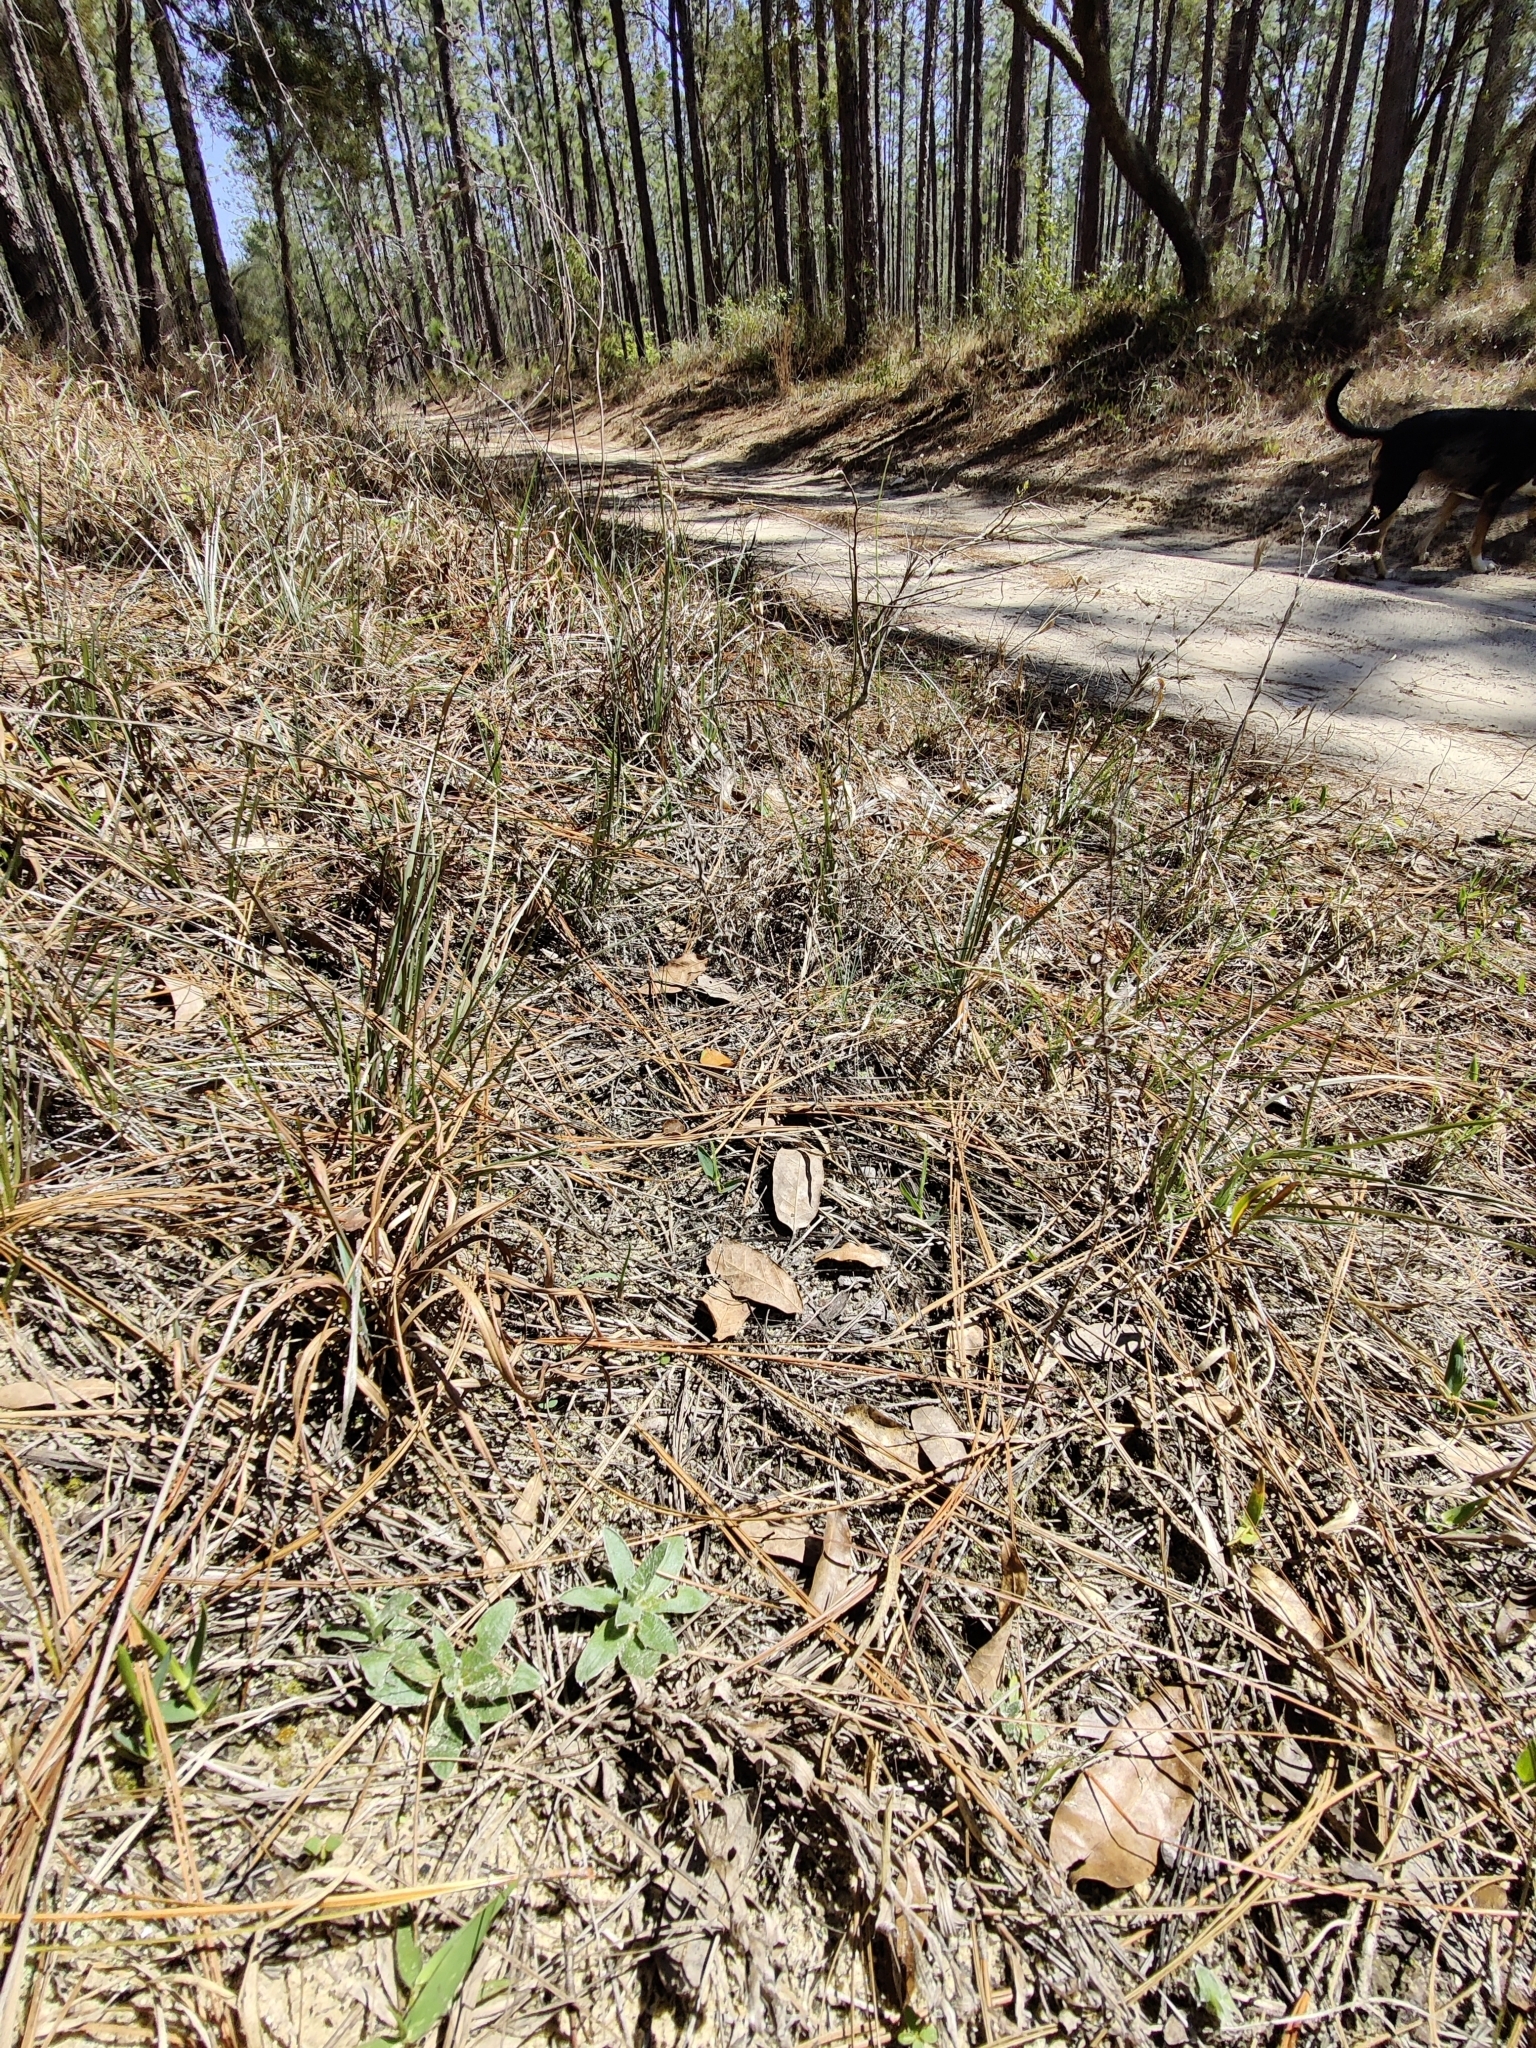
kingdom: Plantae
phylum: Tracheophyta
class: Magnoliopsida
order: Asterales
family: Asteraceae
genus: Pityopsis
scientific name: Pityopsis flexuosa
